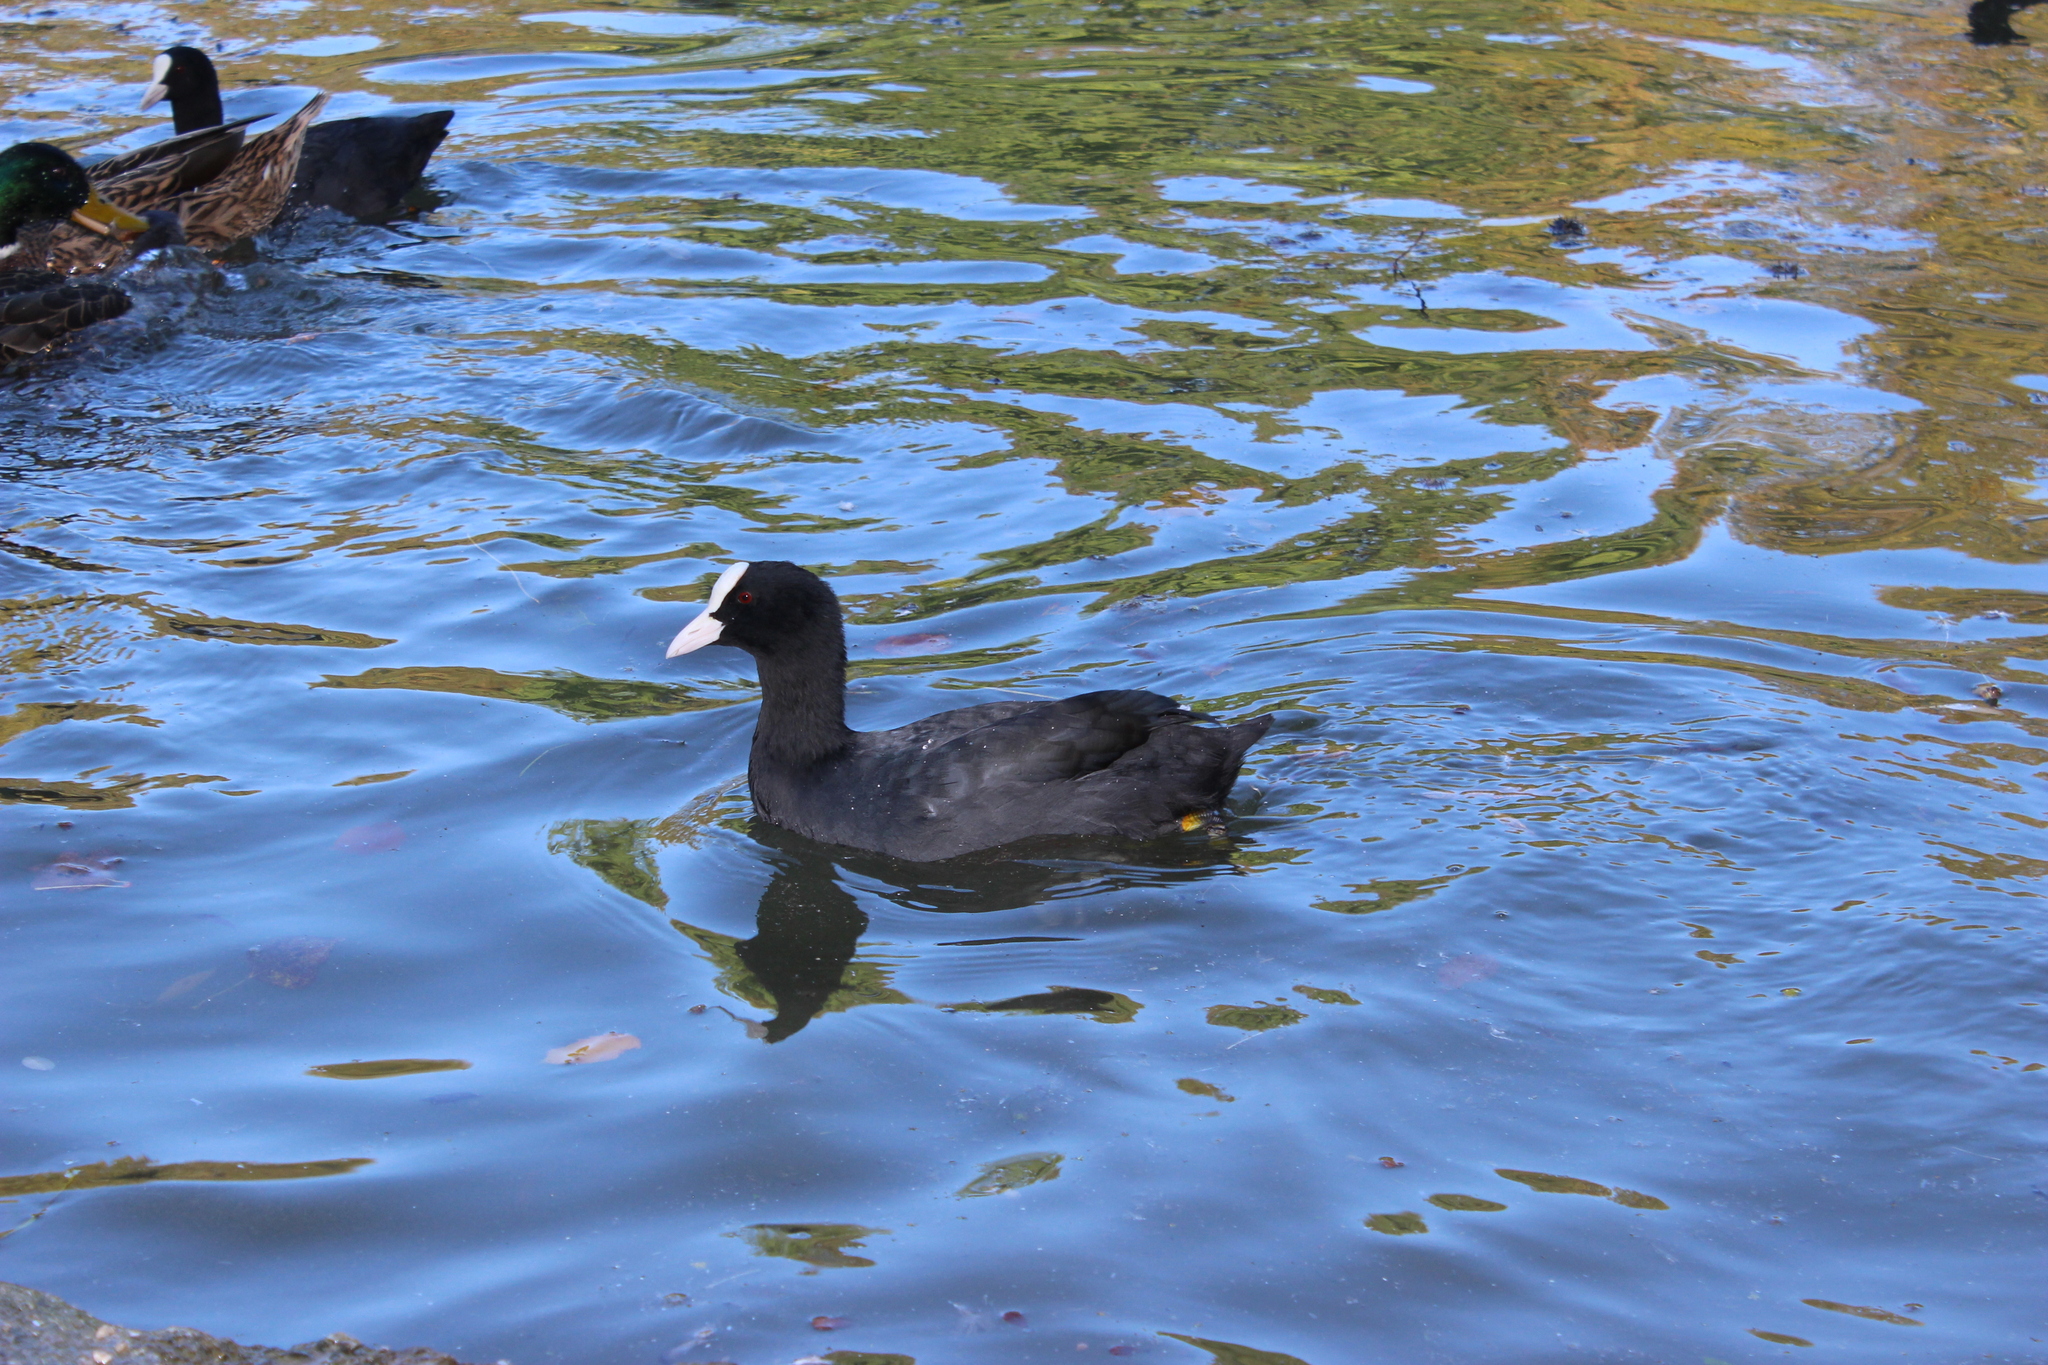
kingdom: Animalia
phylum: Chordata
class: Aves
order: Gruiformes
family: Rallidae
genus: Fulica
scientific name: Fulica atra
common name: Eurasian coot
